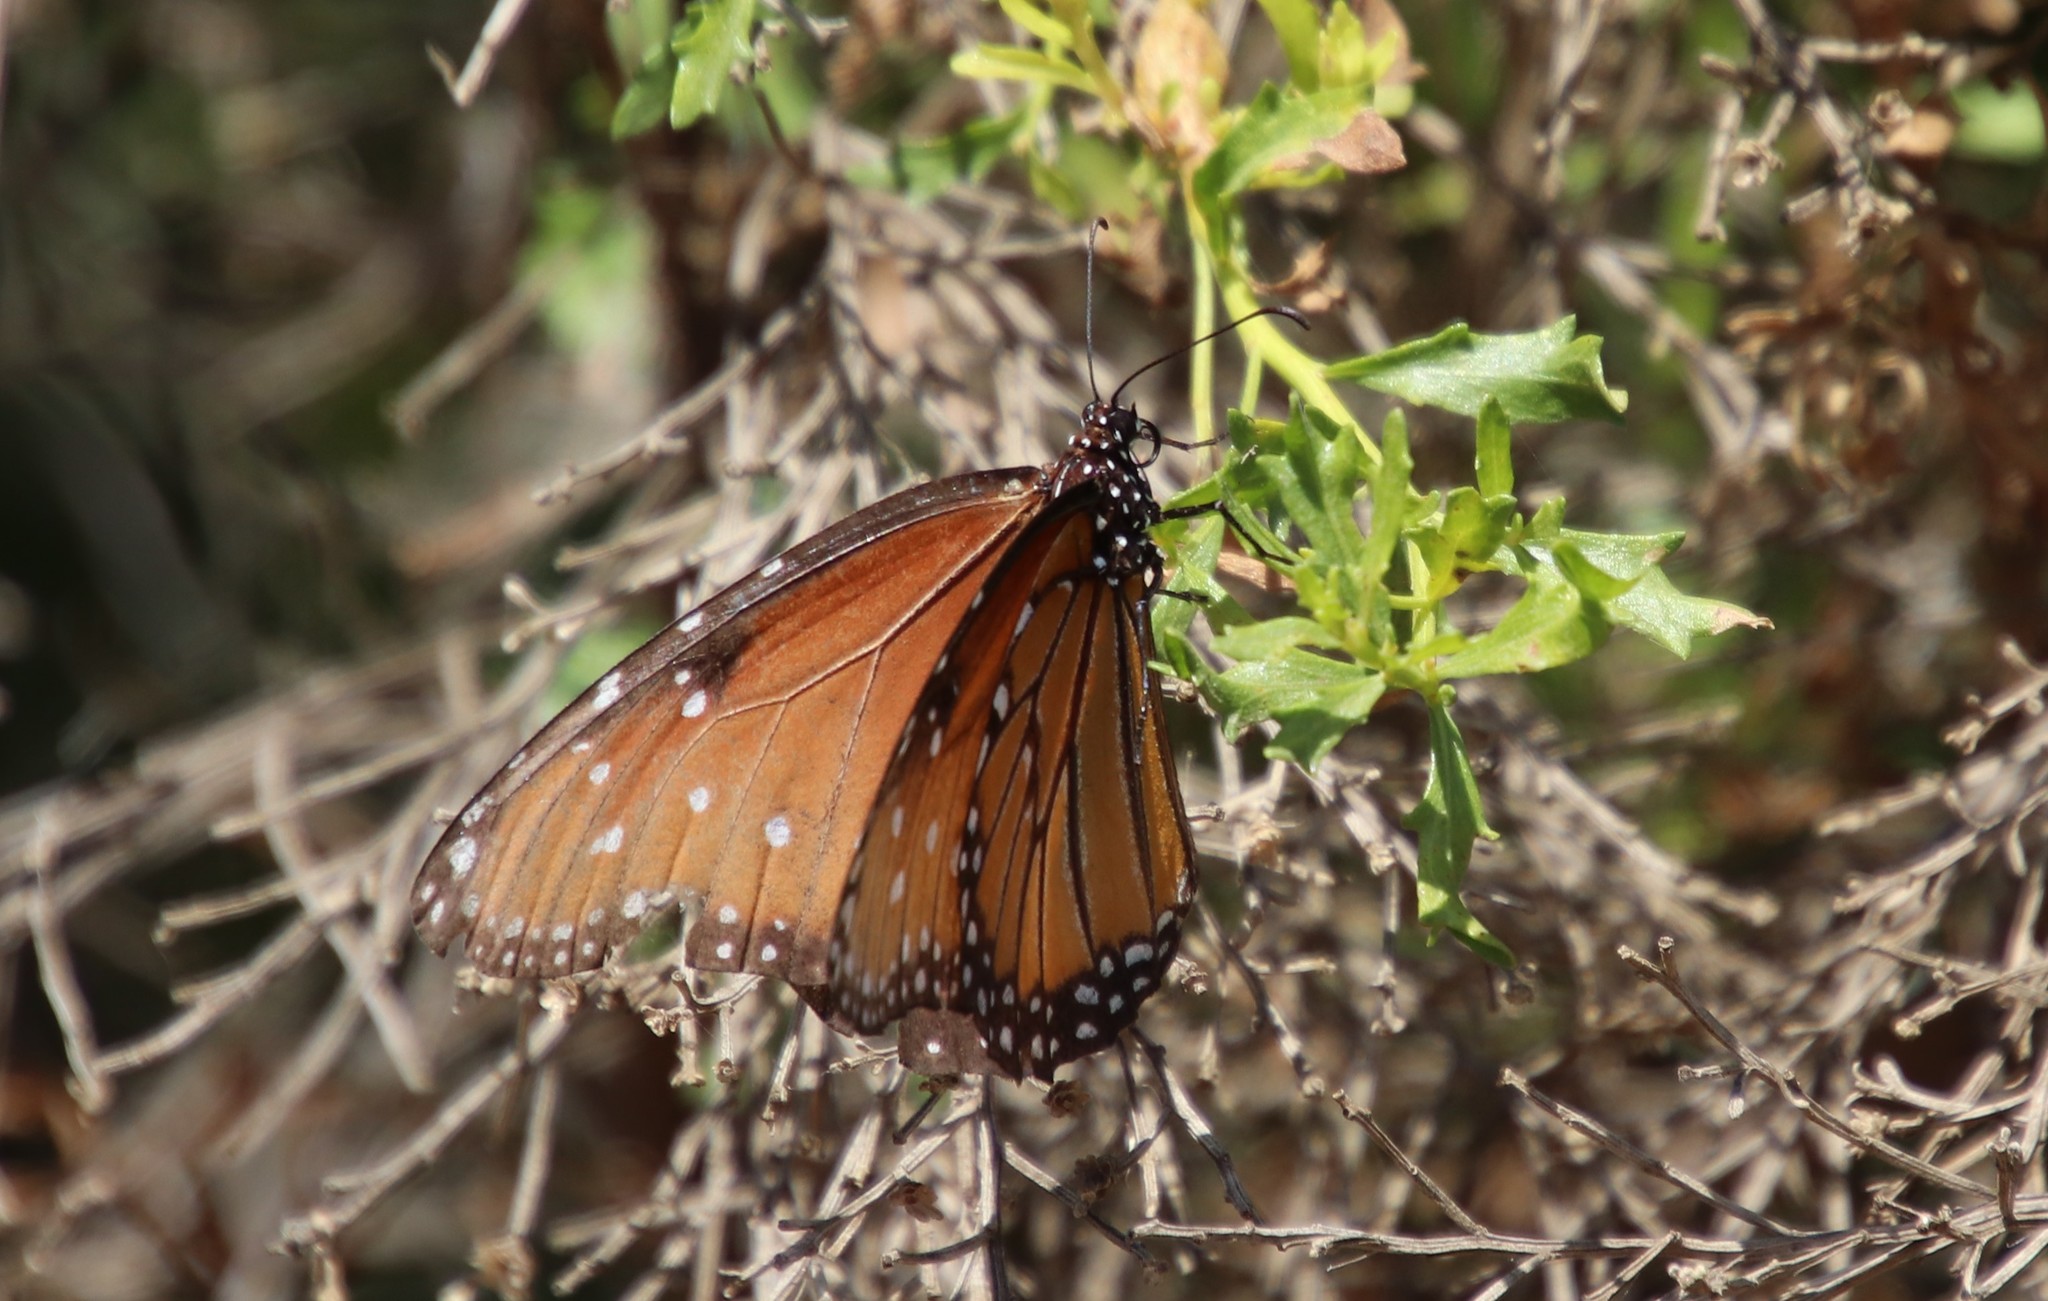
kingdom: Animalia
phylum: Arthropoda
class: Insecta
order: Lepidoptera
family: Nymphalidae
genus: Danaus
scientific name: Danaus gilippus
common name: Queen
